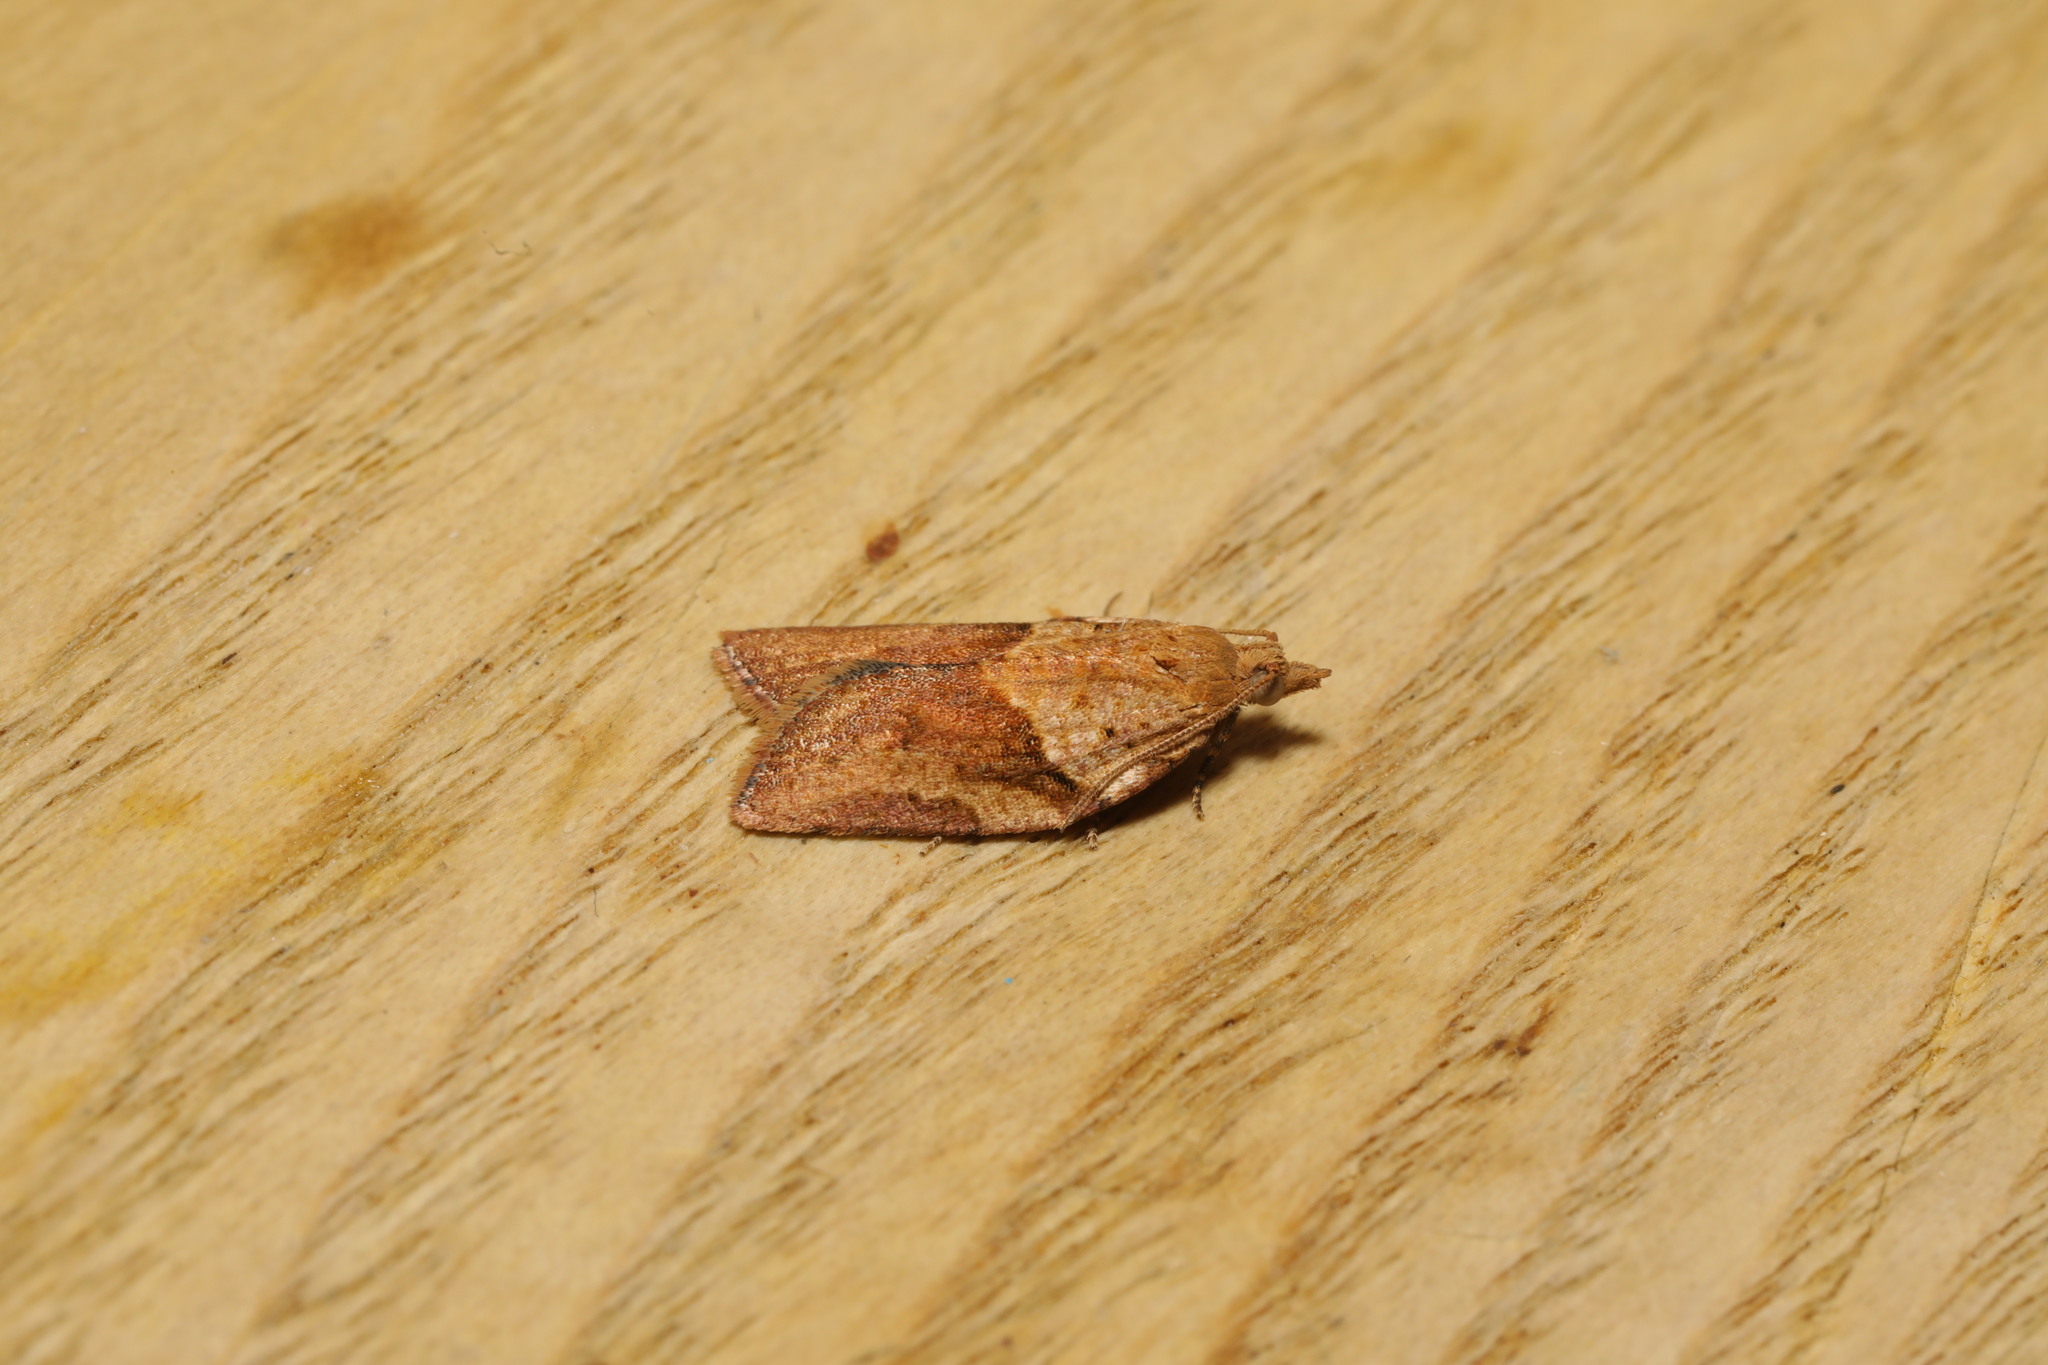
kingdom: Animalia
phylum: Arthropoda
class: Insecta
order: Lepidoptera
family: Tortricidae
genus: Epiphyas
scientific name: Epiphyas postvittana
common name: Light brown apple moth
